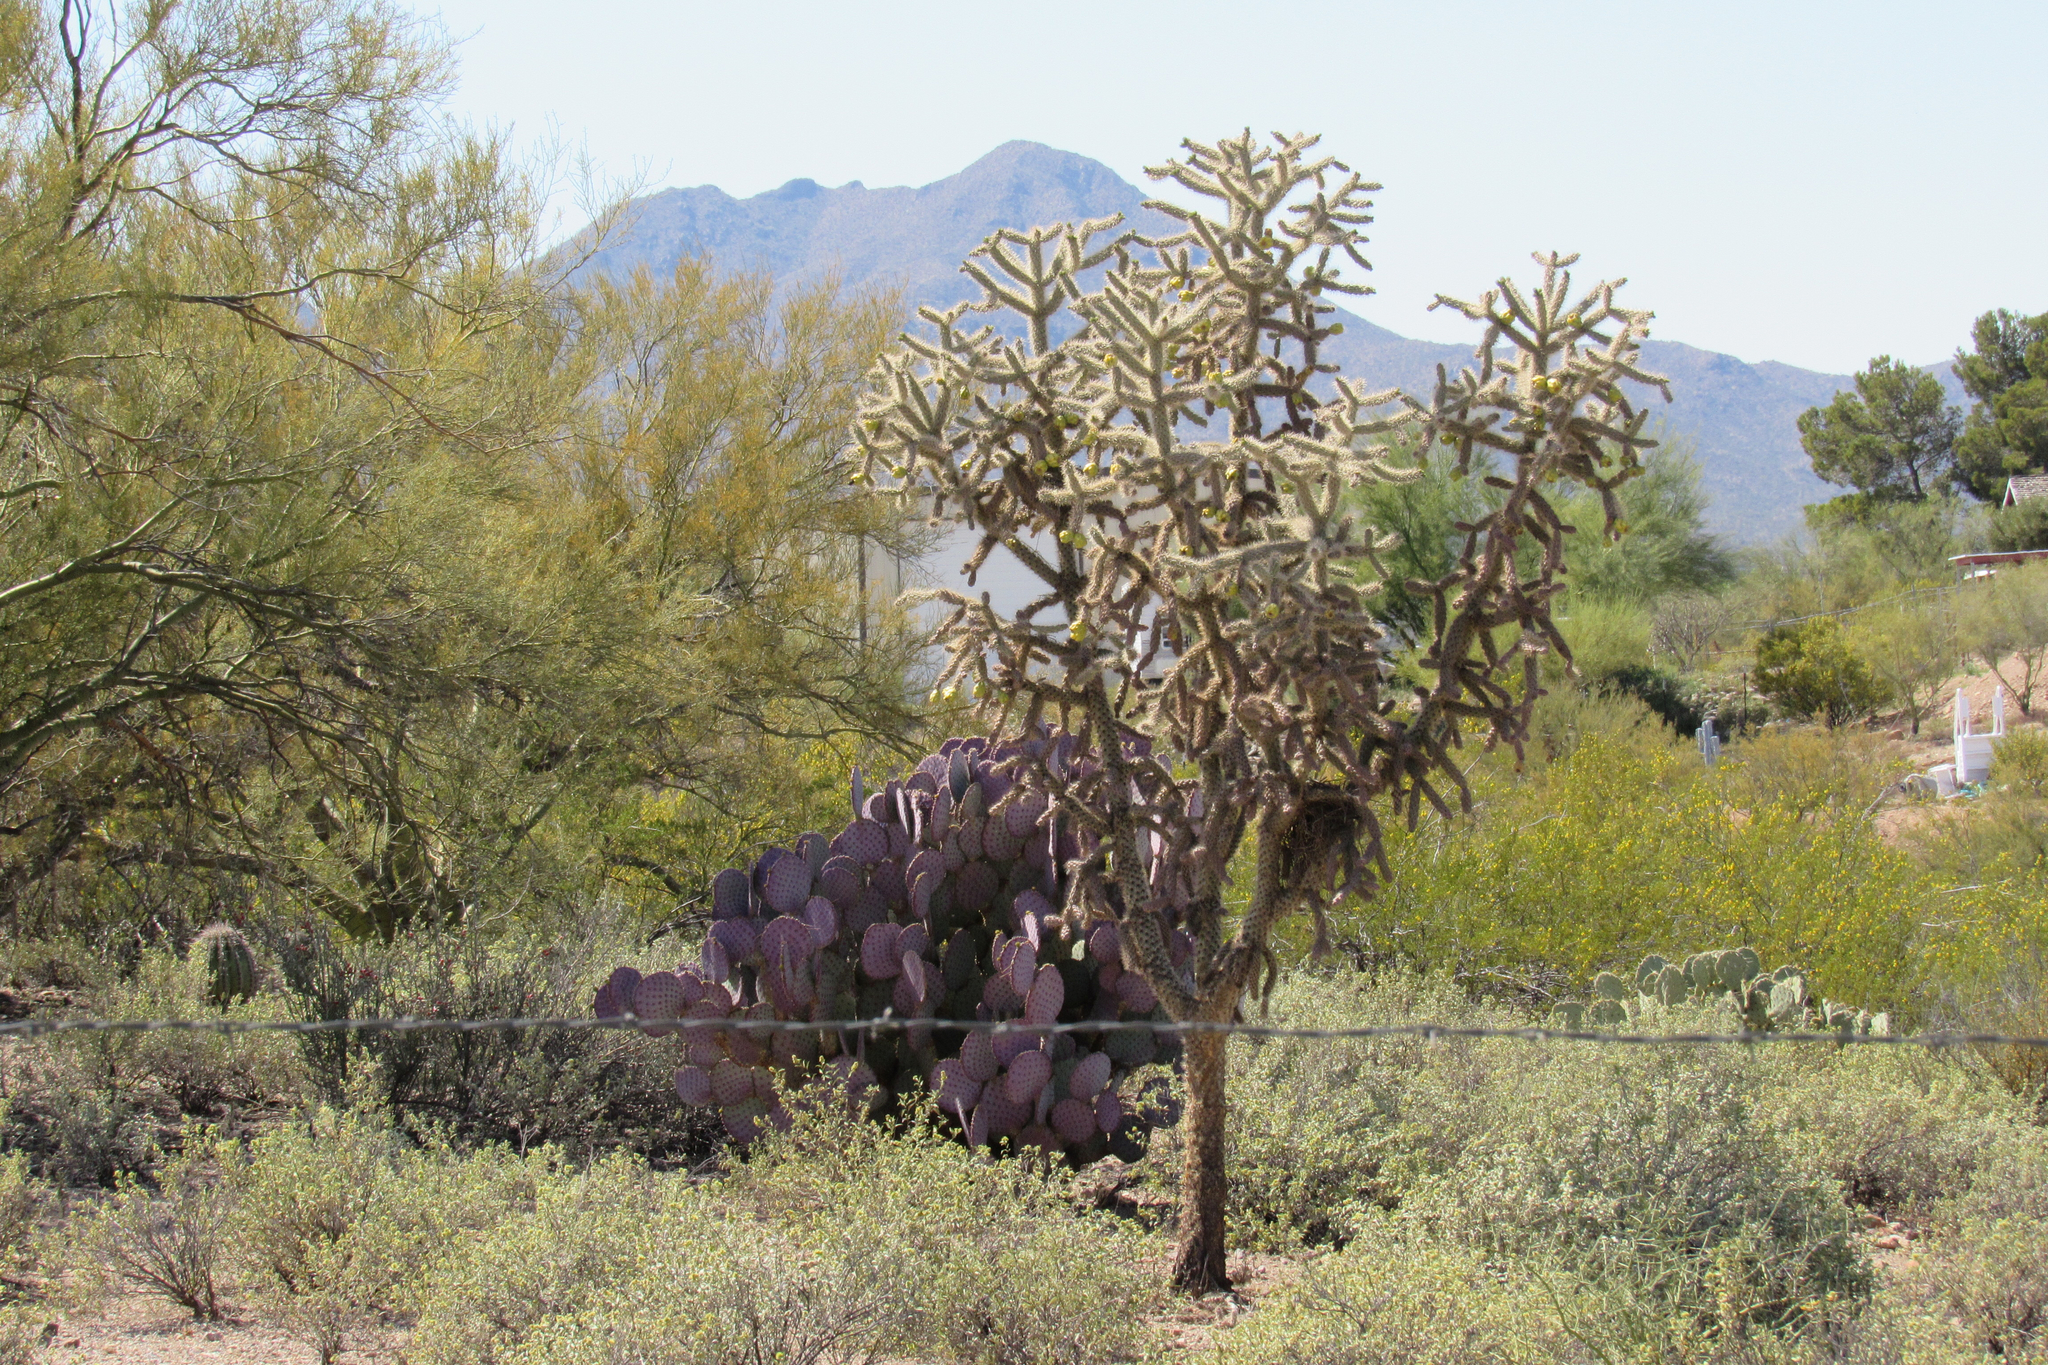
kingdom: Plantae
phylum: Tracheophyta
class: Magnoliopsida
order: Caryophyllales
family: Cactaceae
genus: Opuntia
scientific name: Opuntia gosseliniana
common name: Violet prickly-pear
